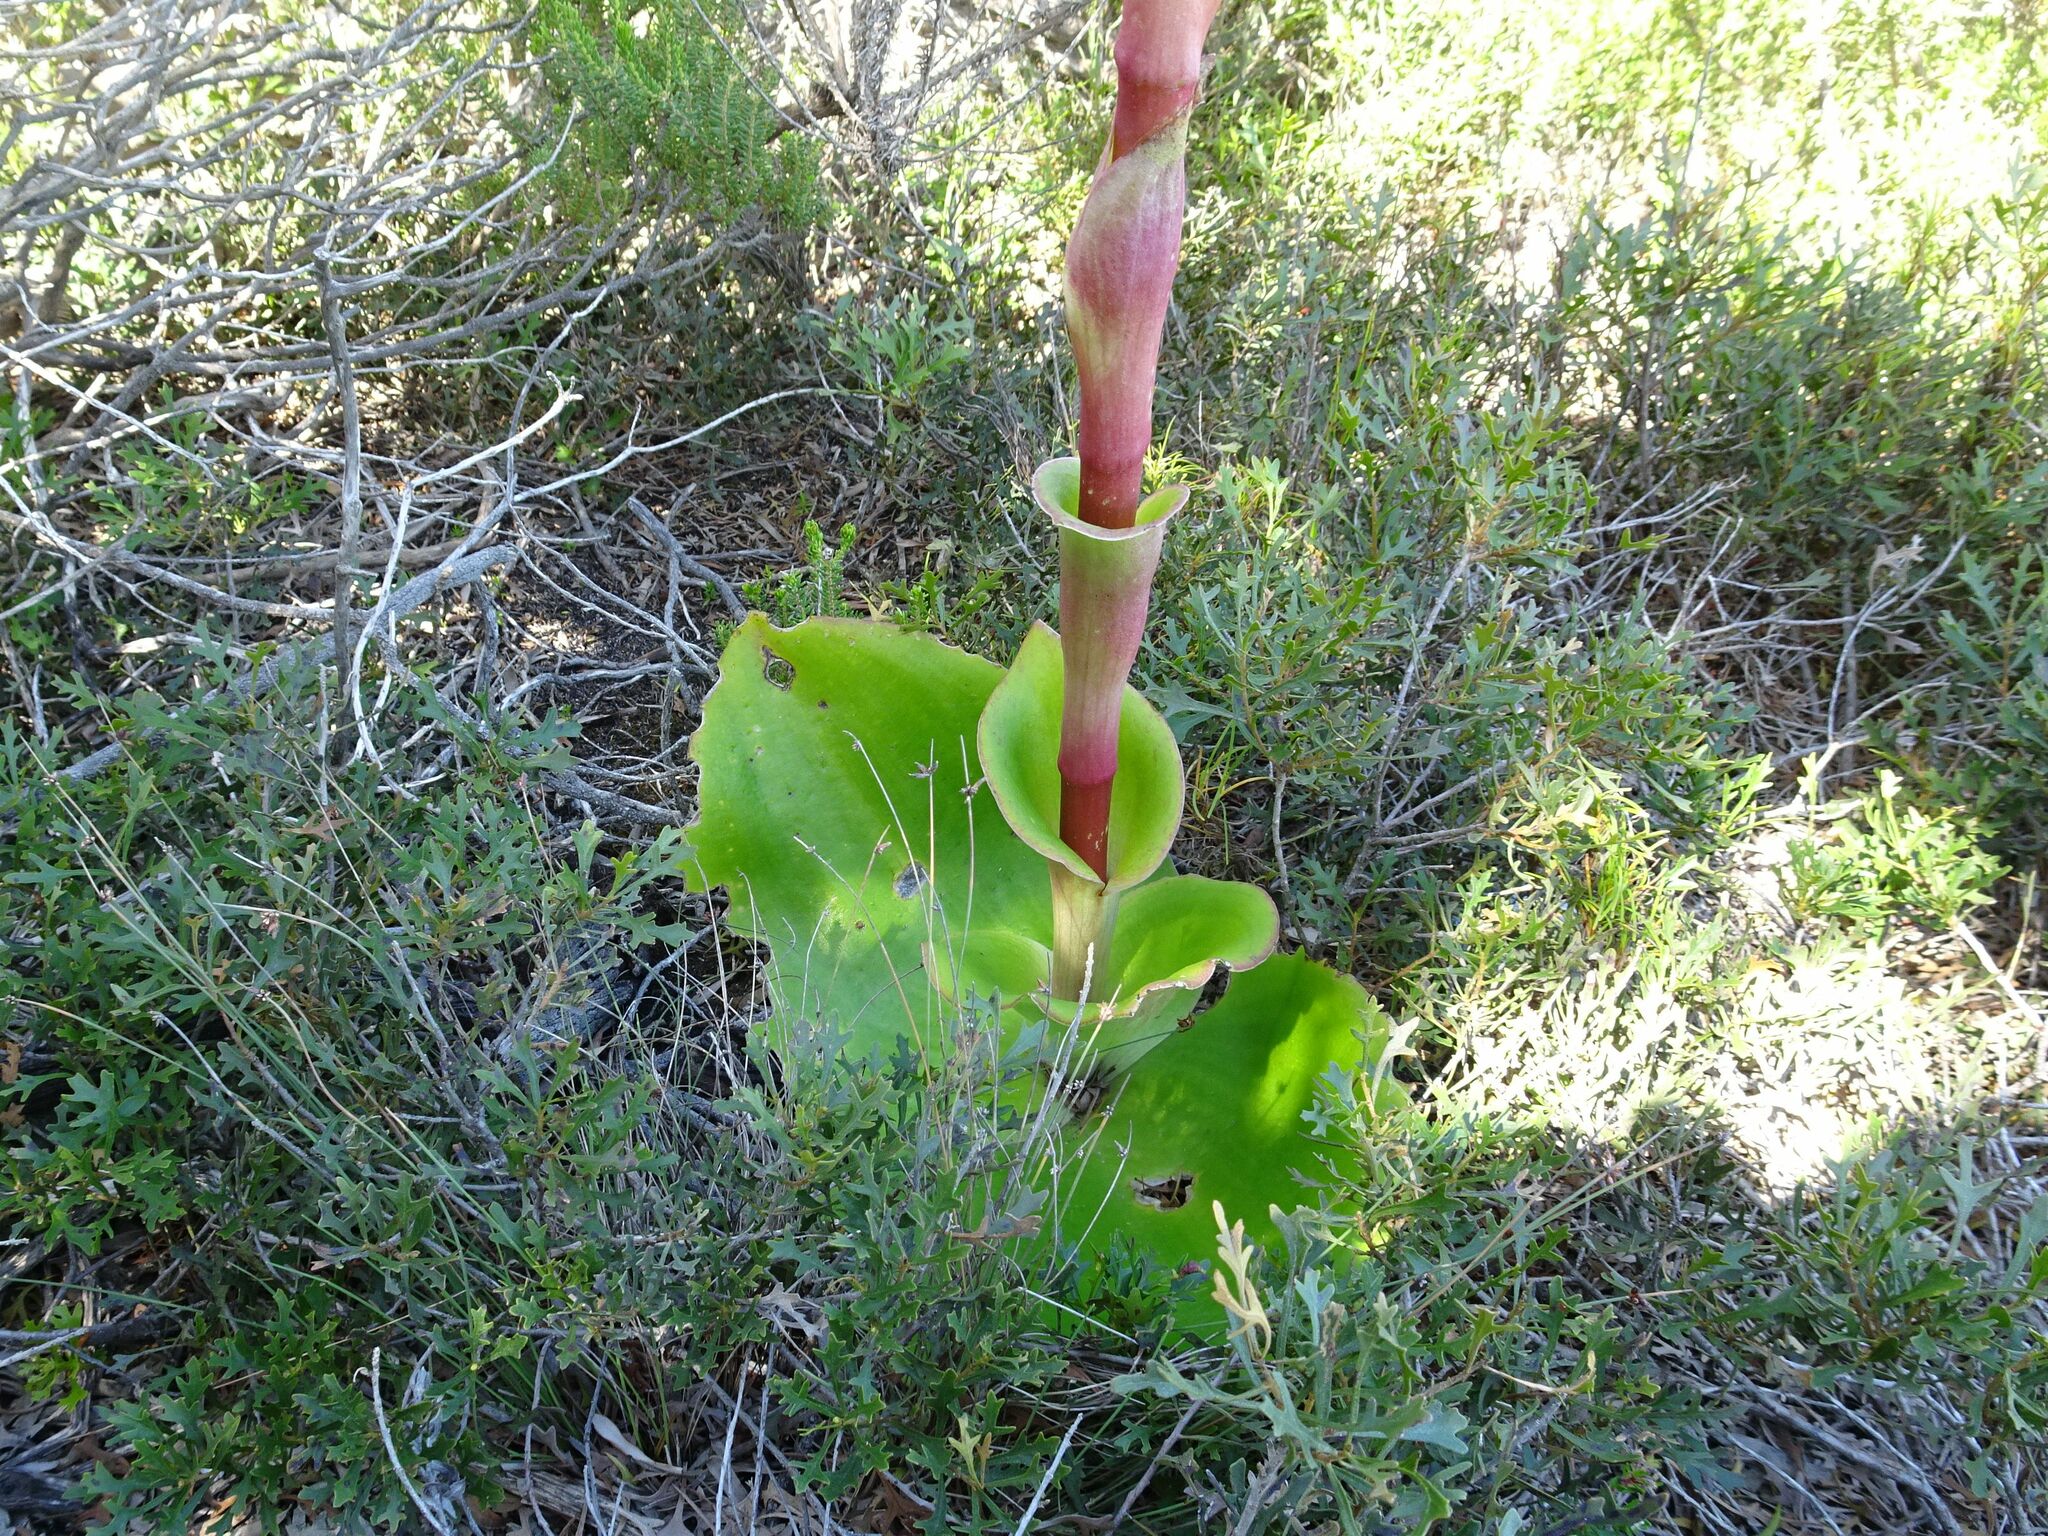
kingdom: Plantae
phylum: Tracheophyta
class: Liliopsida
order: Asparagales
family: Orchidaceae
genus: Satyrium
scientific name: Satyrium carneum
